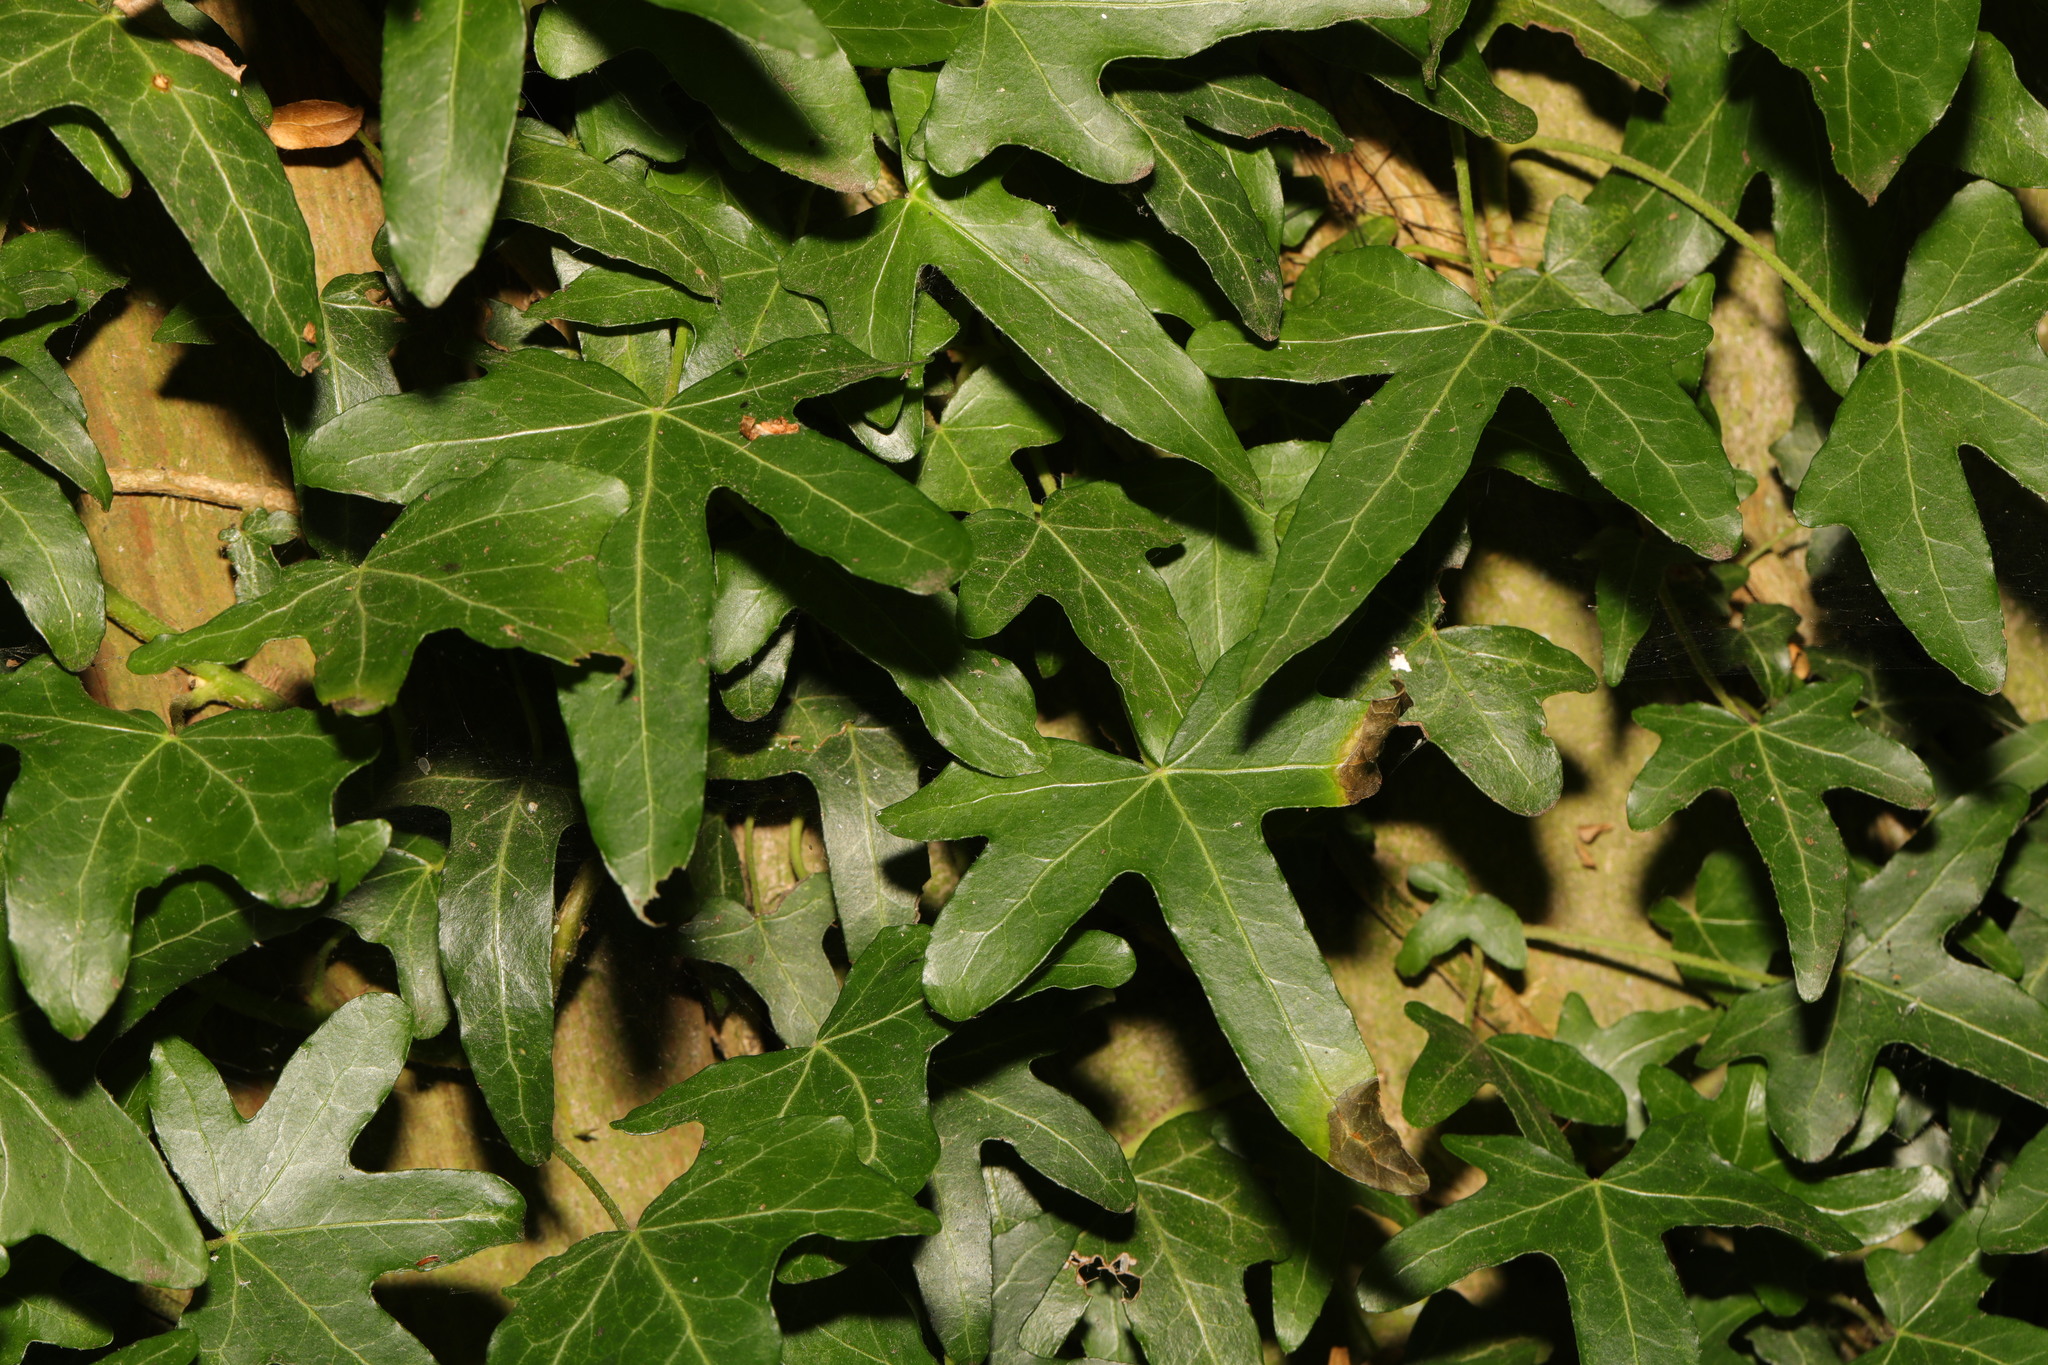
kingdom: Plantae
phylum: Tracheophyta
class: Magnoliopsida
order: Apiales
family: Araliaceae
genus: Hedera
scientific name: Hedera helix
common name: Ivy
